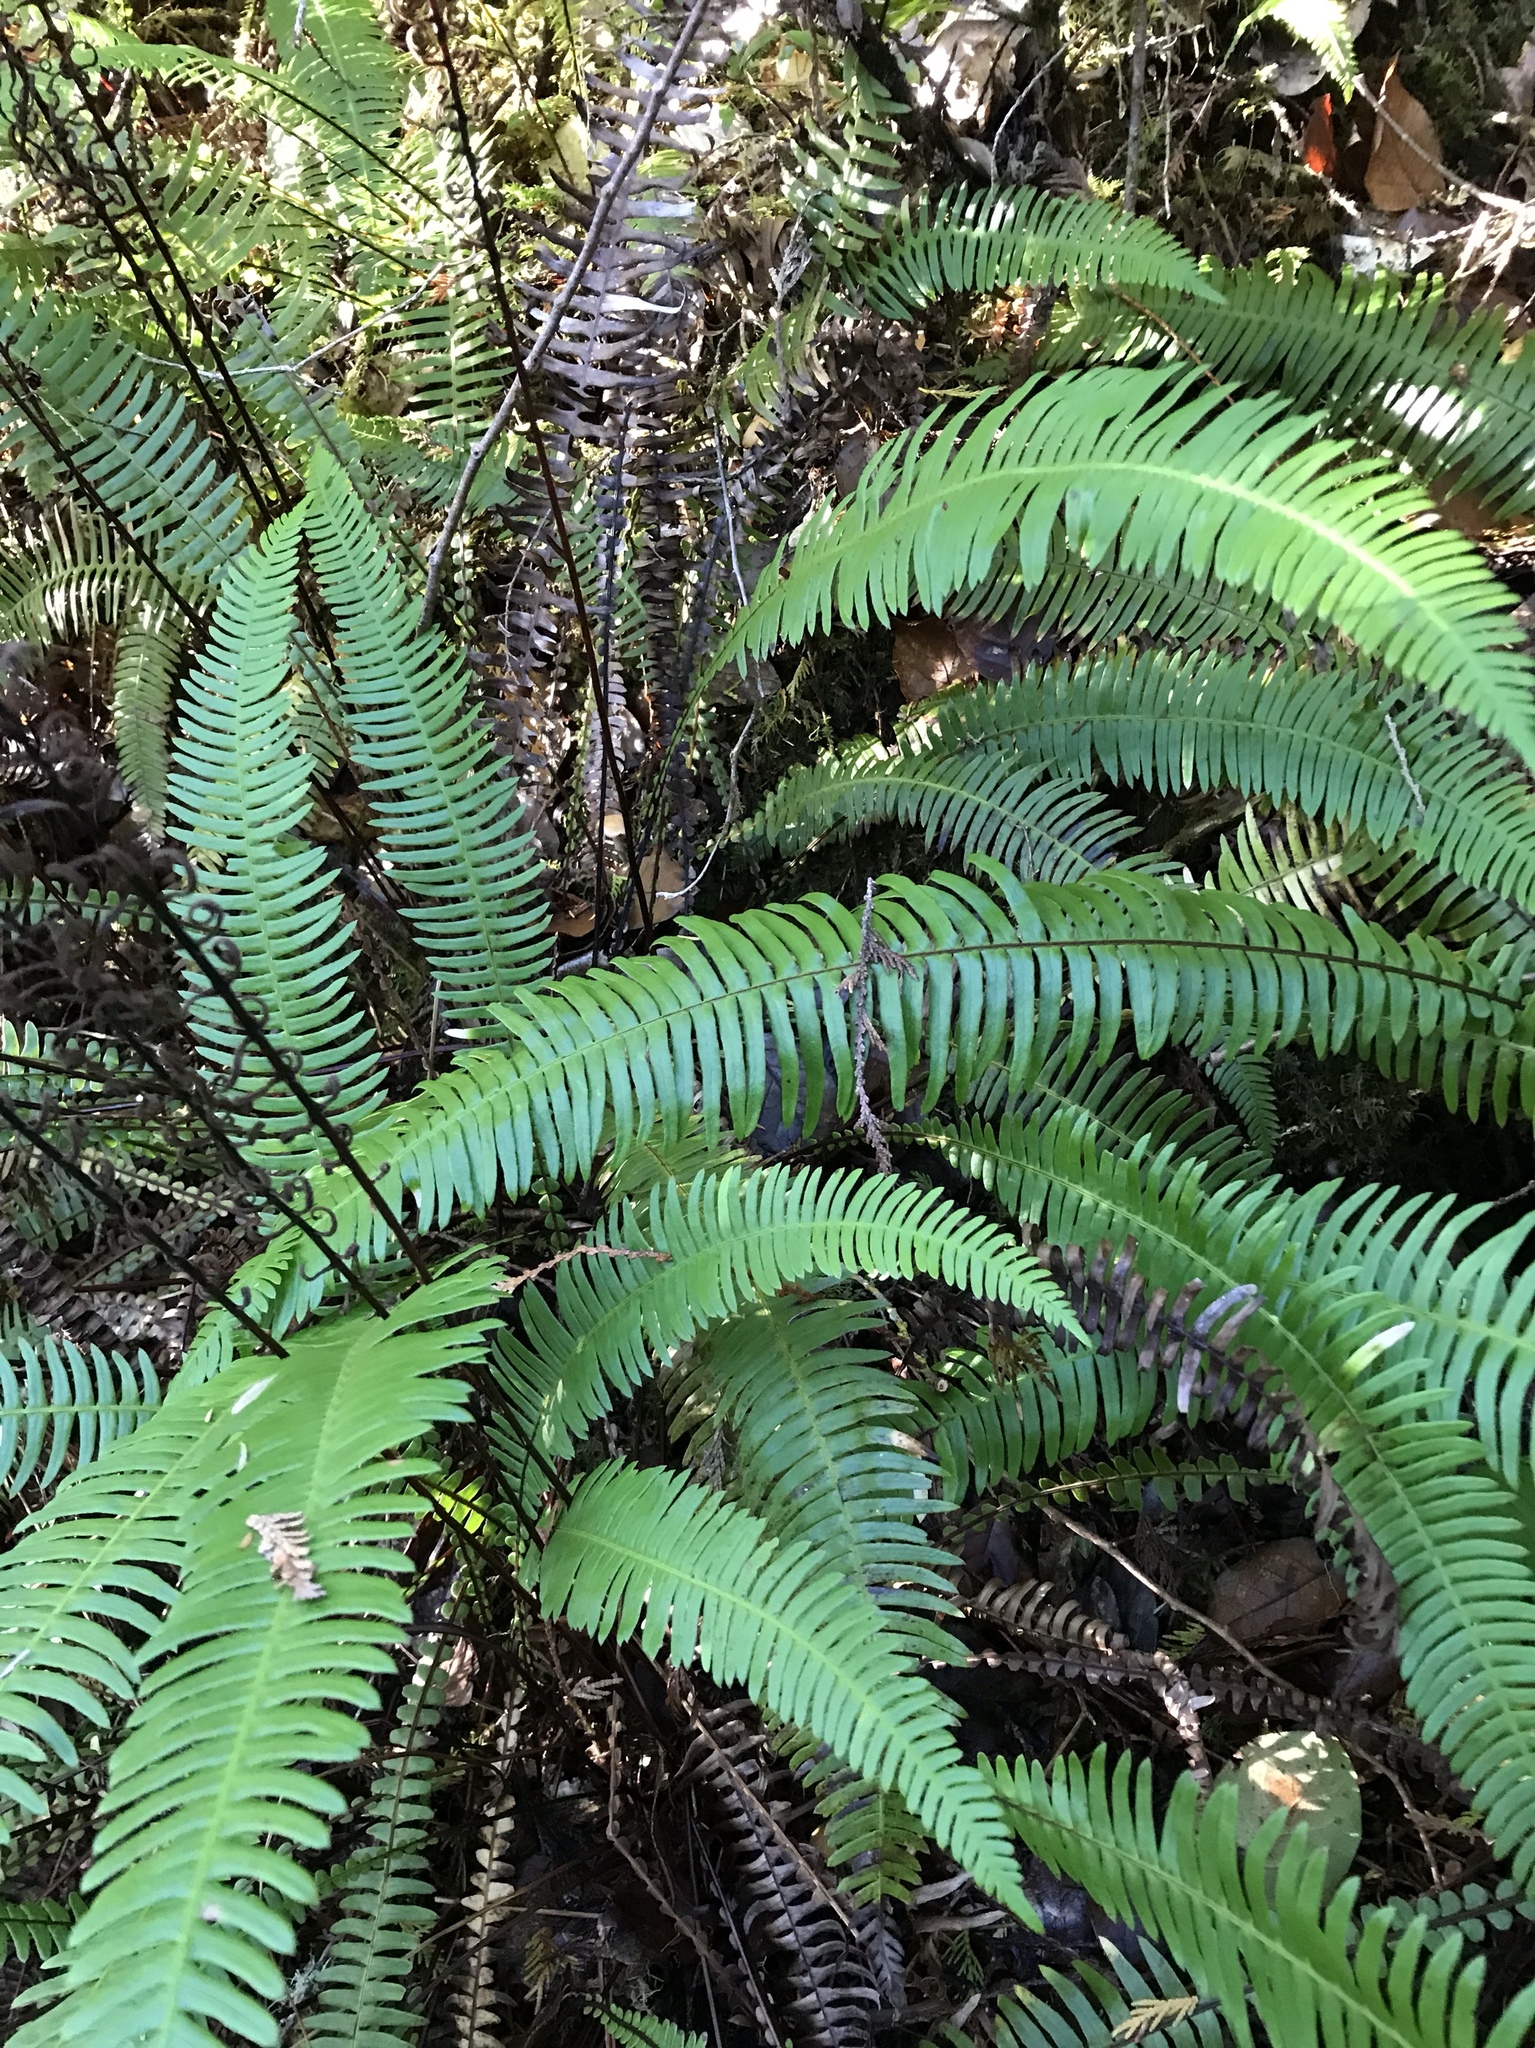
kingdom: Plantae
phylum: Tracheophyta
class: Polypodiopsida
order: Polypodiales
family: Blechnaceae
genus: Struthiopteris
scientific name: Struthiopteris spicant
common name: Deer fern
